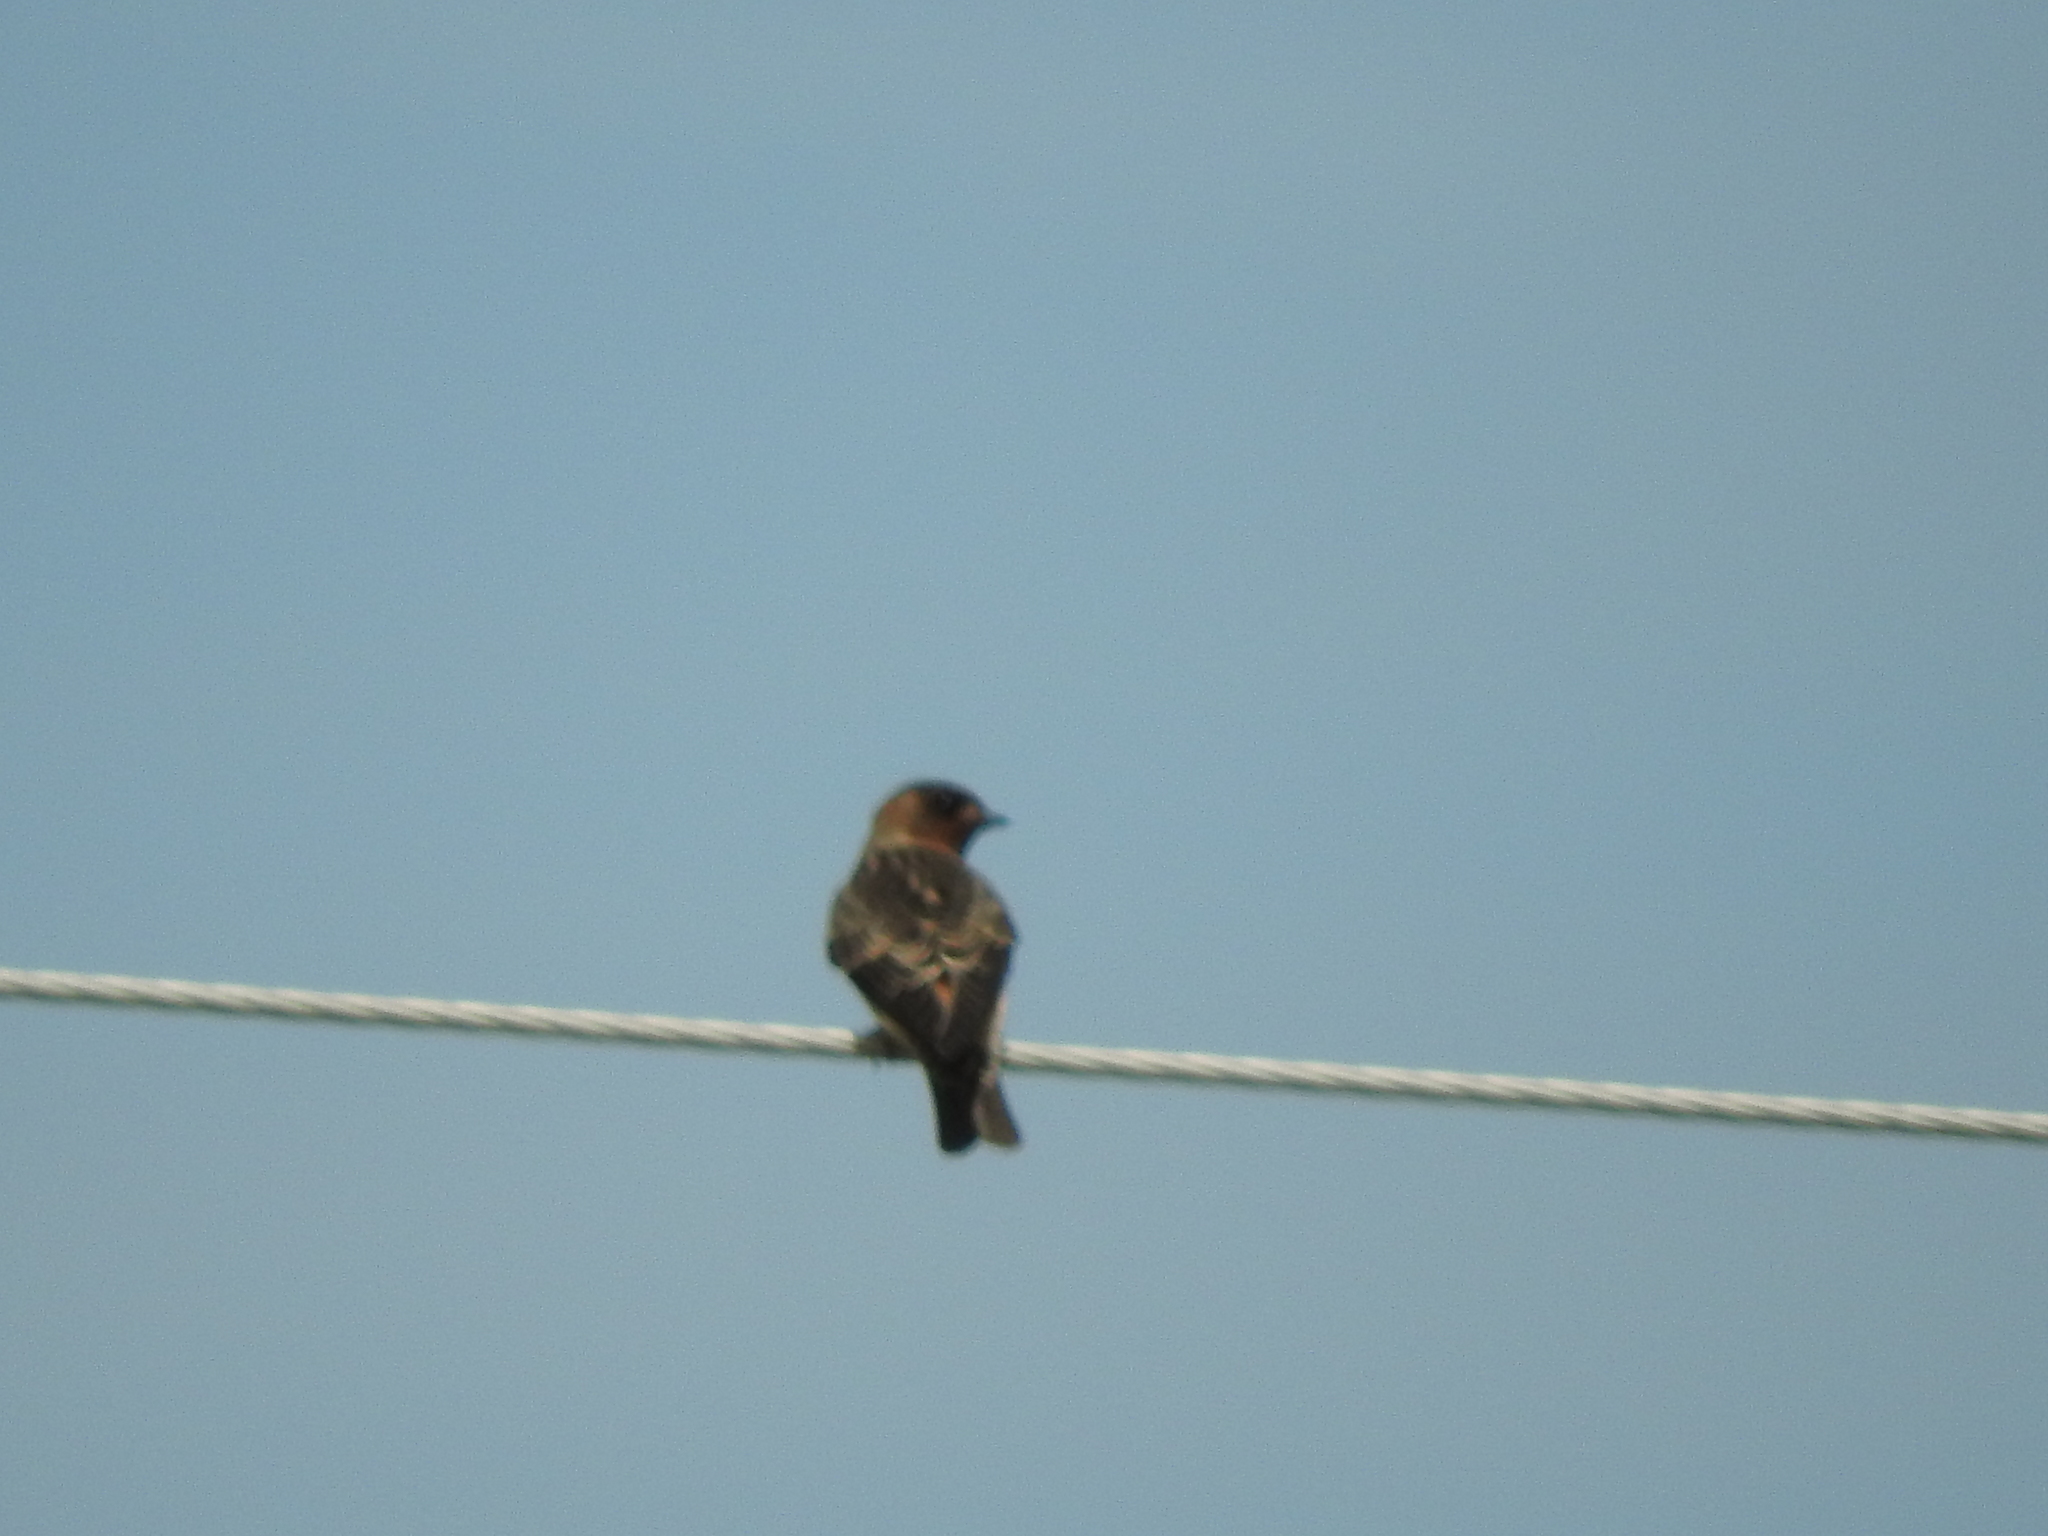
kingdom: Animalia
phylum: Chordata
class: Aves
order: Passeriformes
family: Hirundinidae
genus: Petrochelidon
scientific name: Petrochelidon pyrrhonota
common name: American cliff swallow
